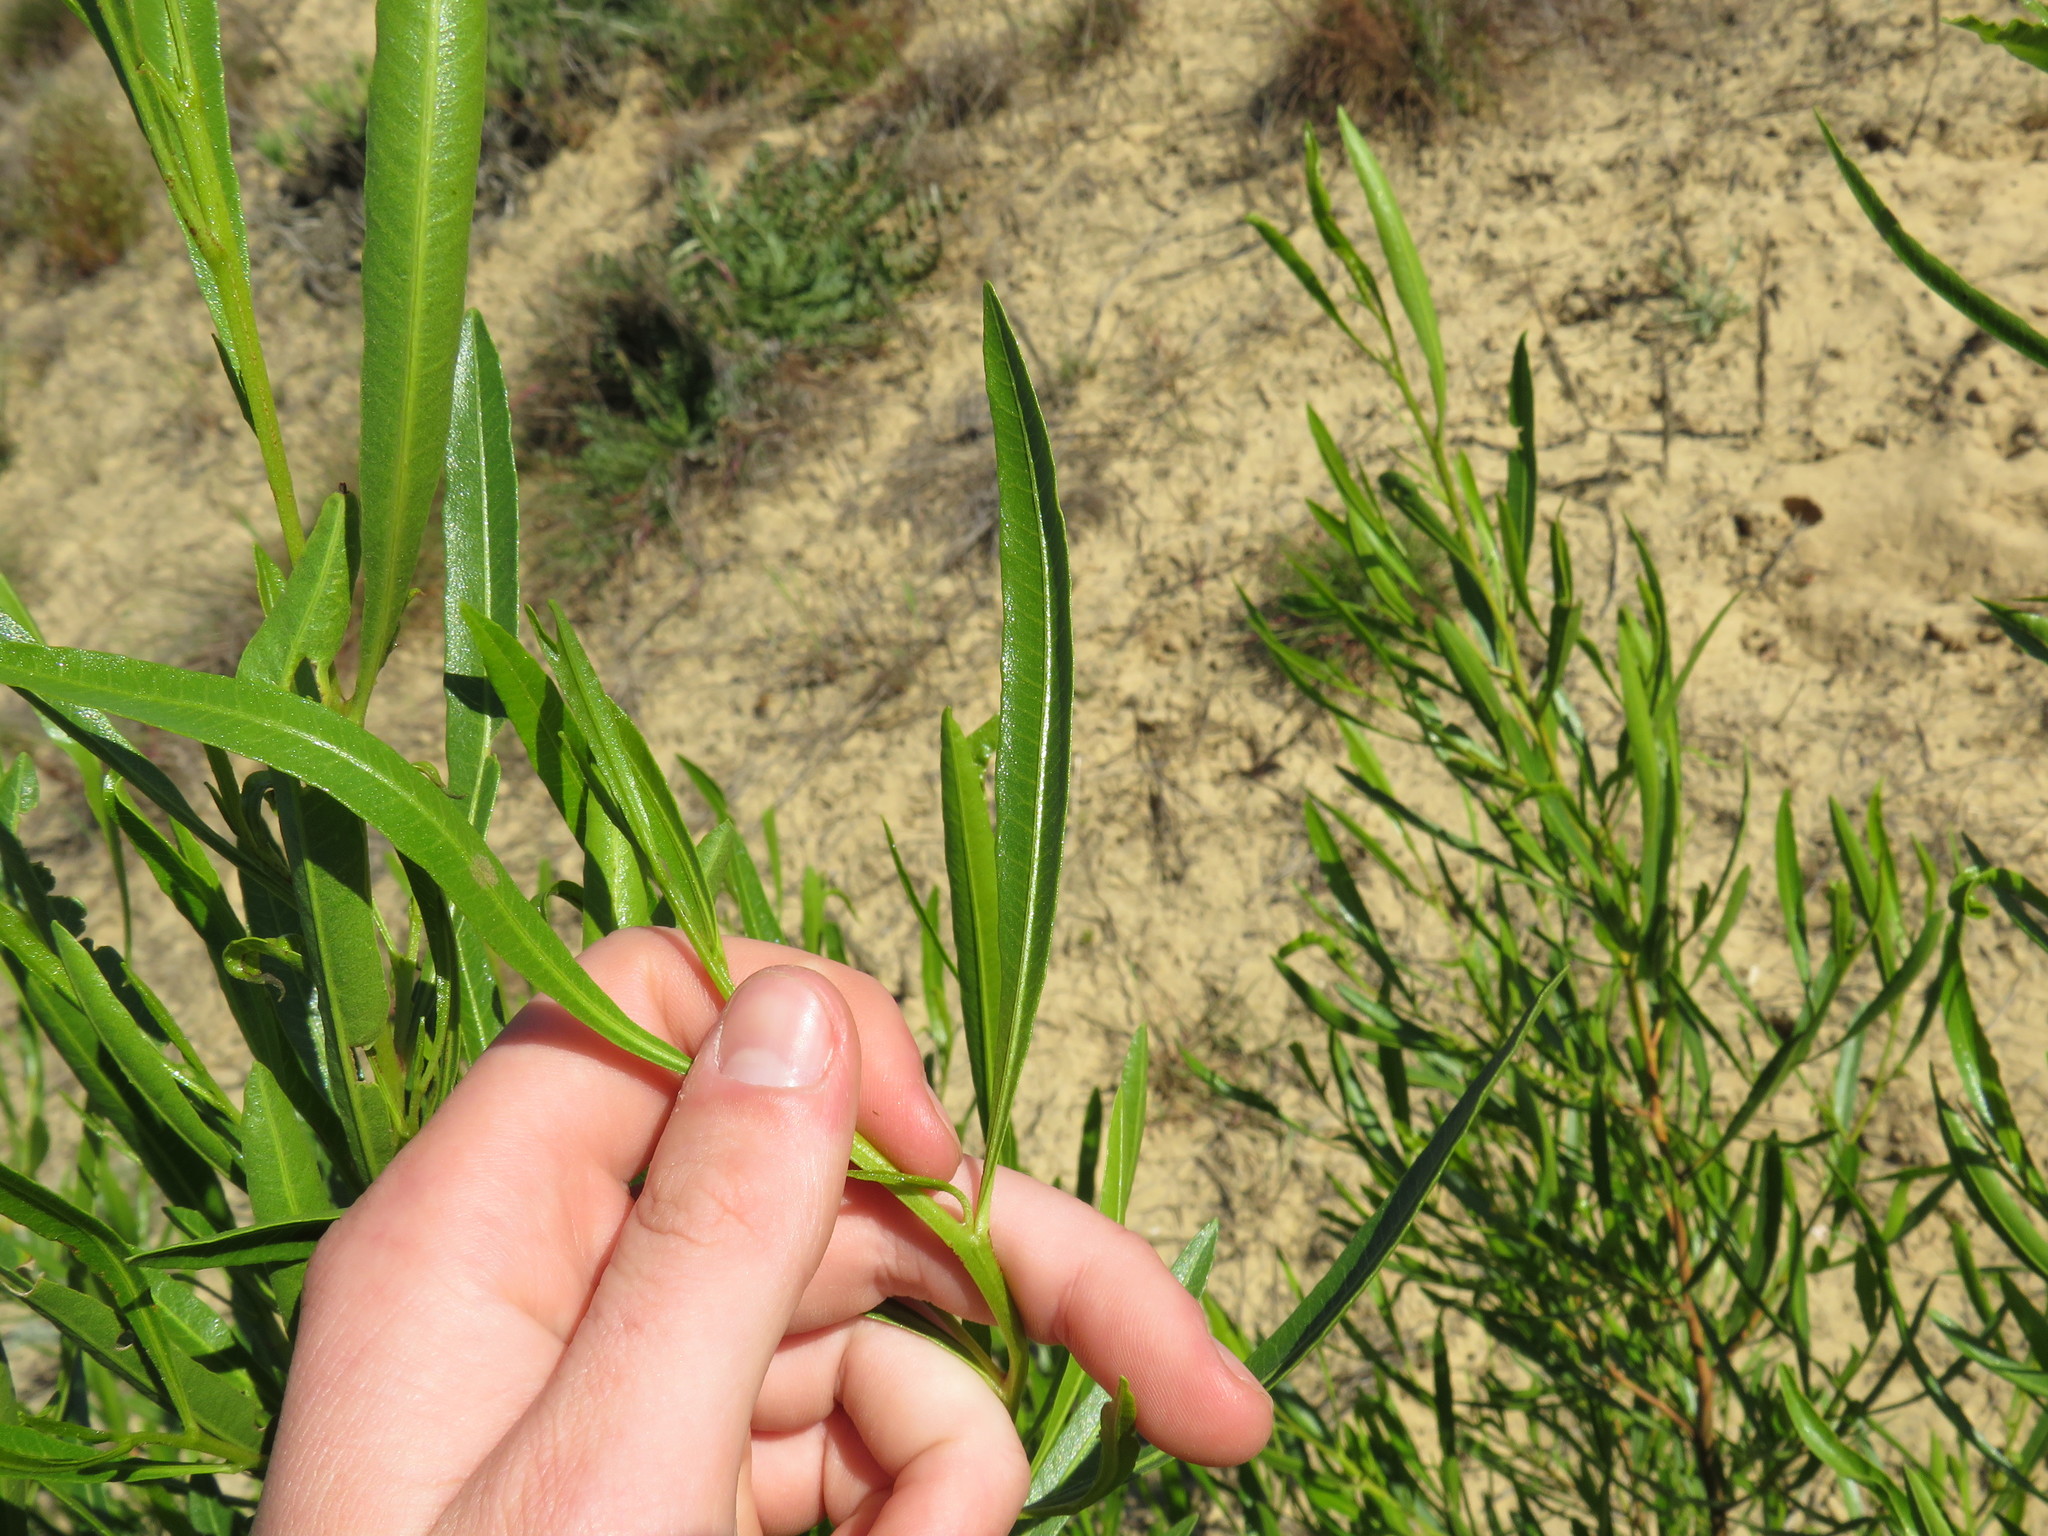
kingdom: Plantae
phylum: Tracheophyta
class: Magnoliopsida
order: Sapindales
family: Sapindaceae
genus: Dodonaea
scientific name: Dodonaea viscosa
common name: Hopbush
